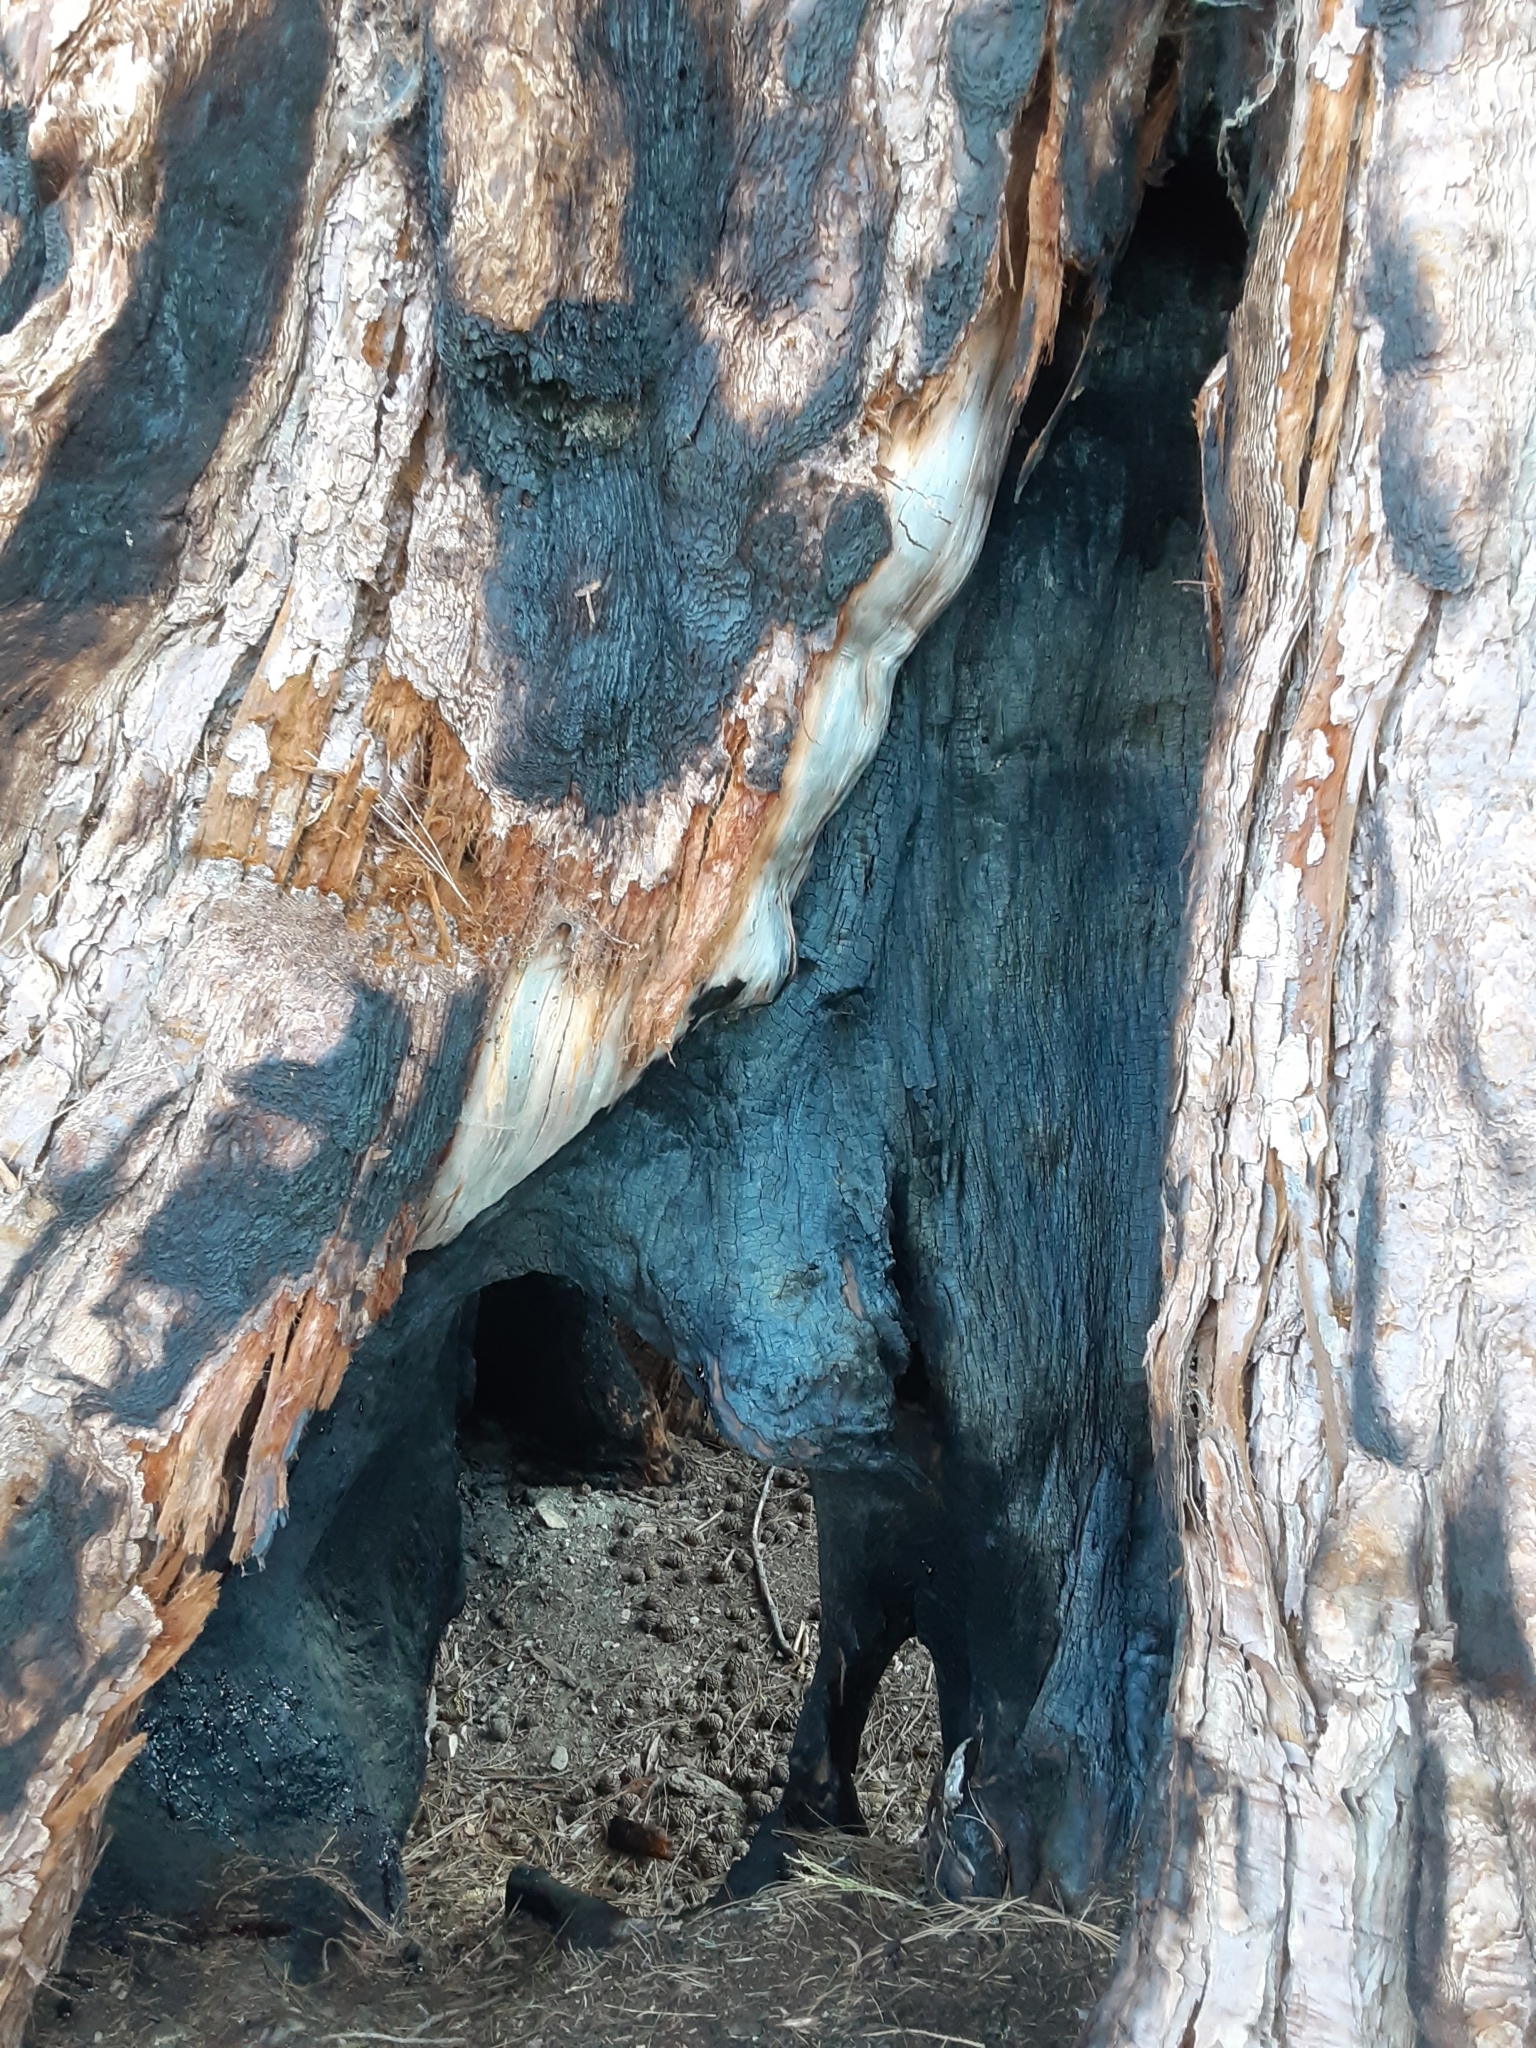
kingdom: Plantae
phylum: Tracheophyta
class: Pinopsida
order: Pinales
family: Cupressaceae
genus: Sequoiadendron
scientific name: Sequoiadendron giganteum
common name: Wellingtonia
